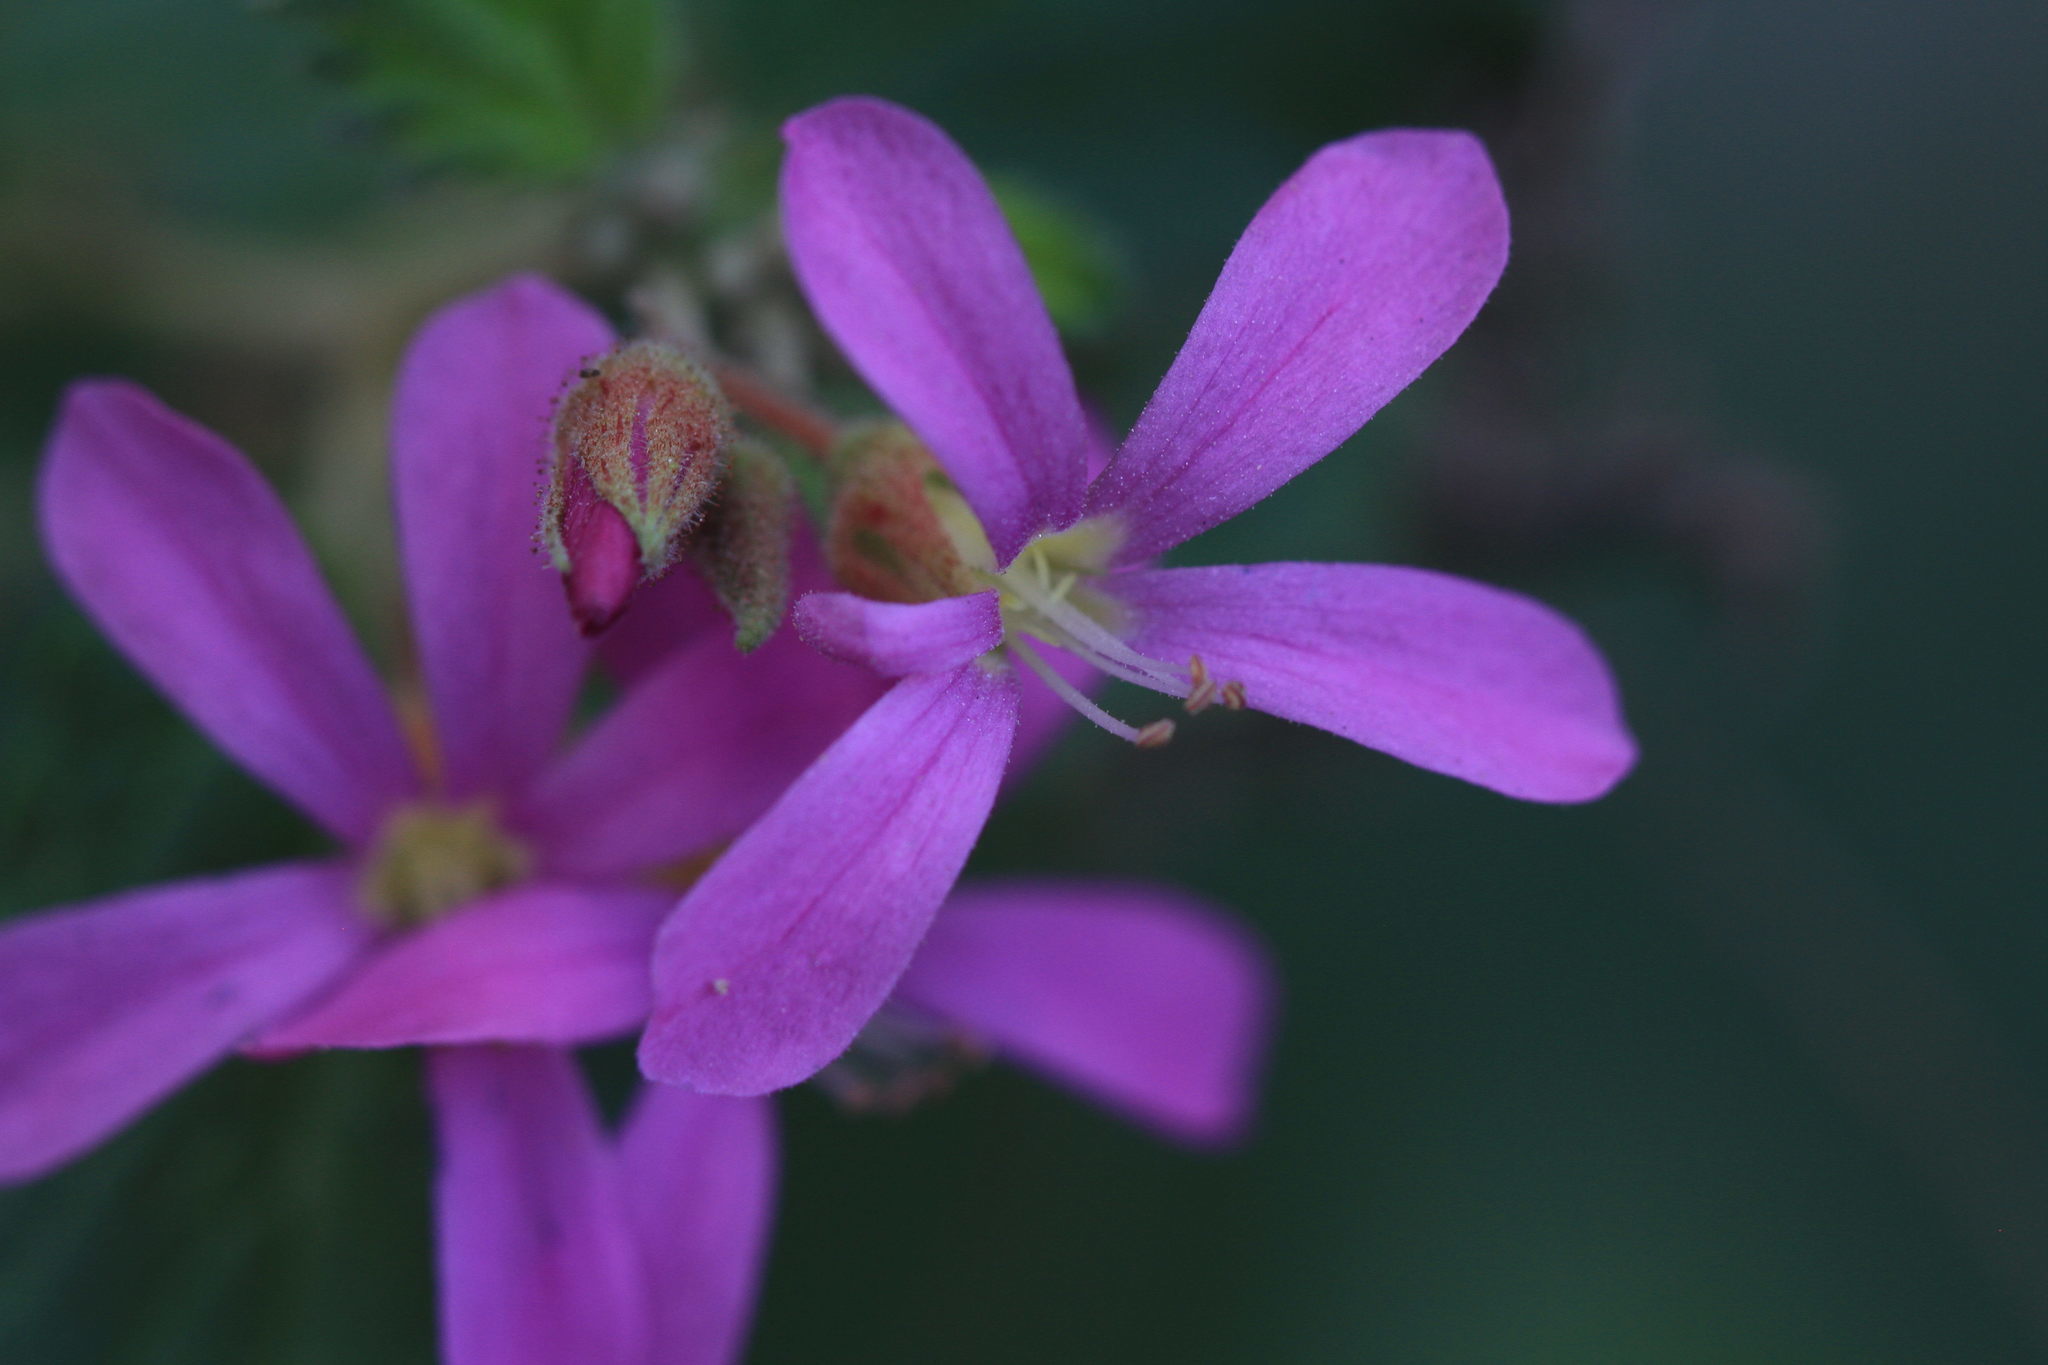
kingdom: Plantae
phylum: Tracheophyta
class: Magnoliopsida
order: Malvales
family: Malvaceae
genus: Melochia
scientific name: Melochia pyramidata
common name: Pyramidflower
